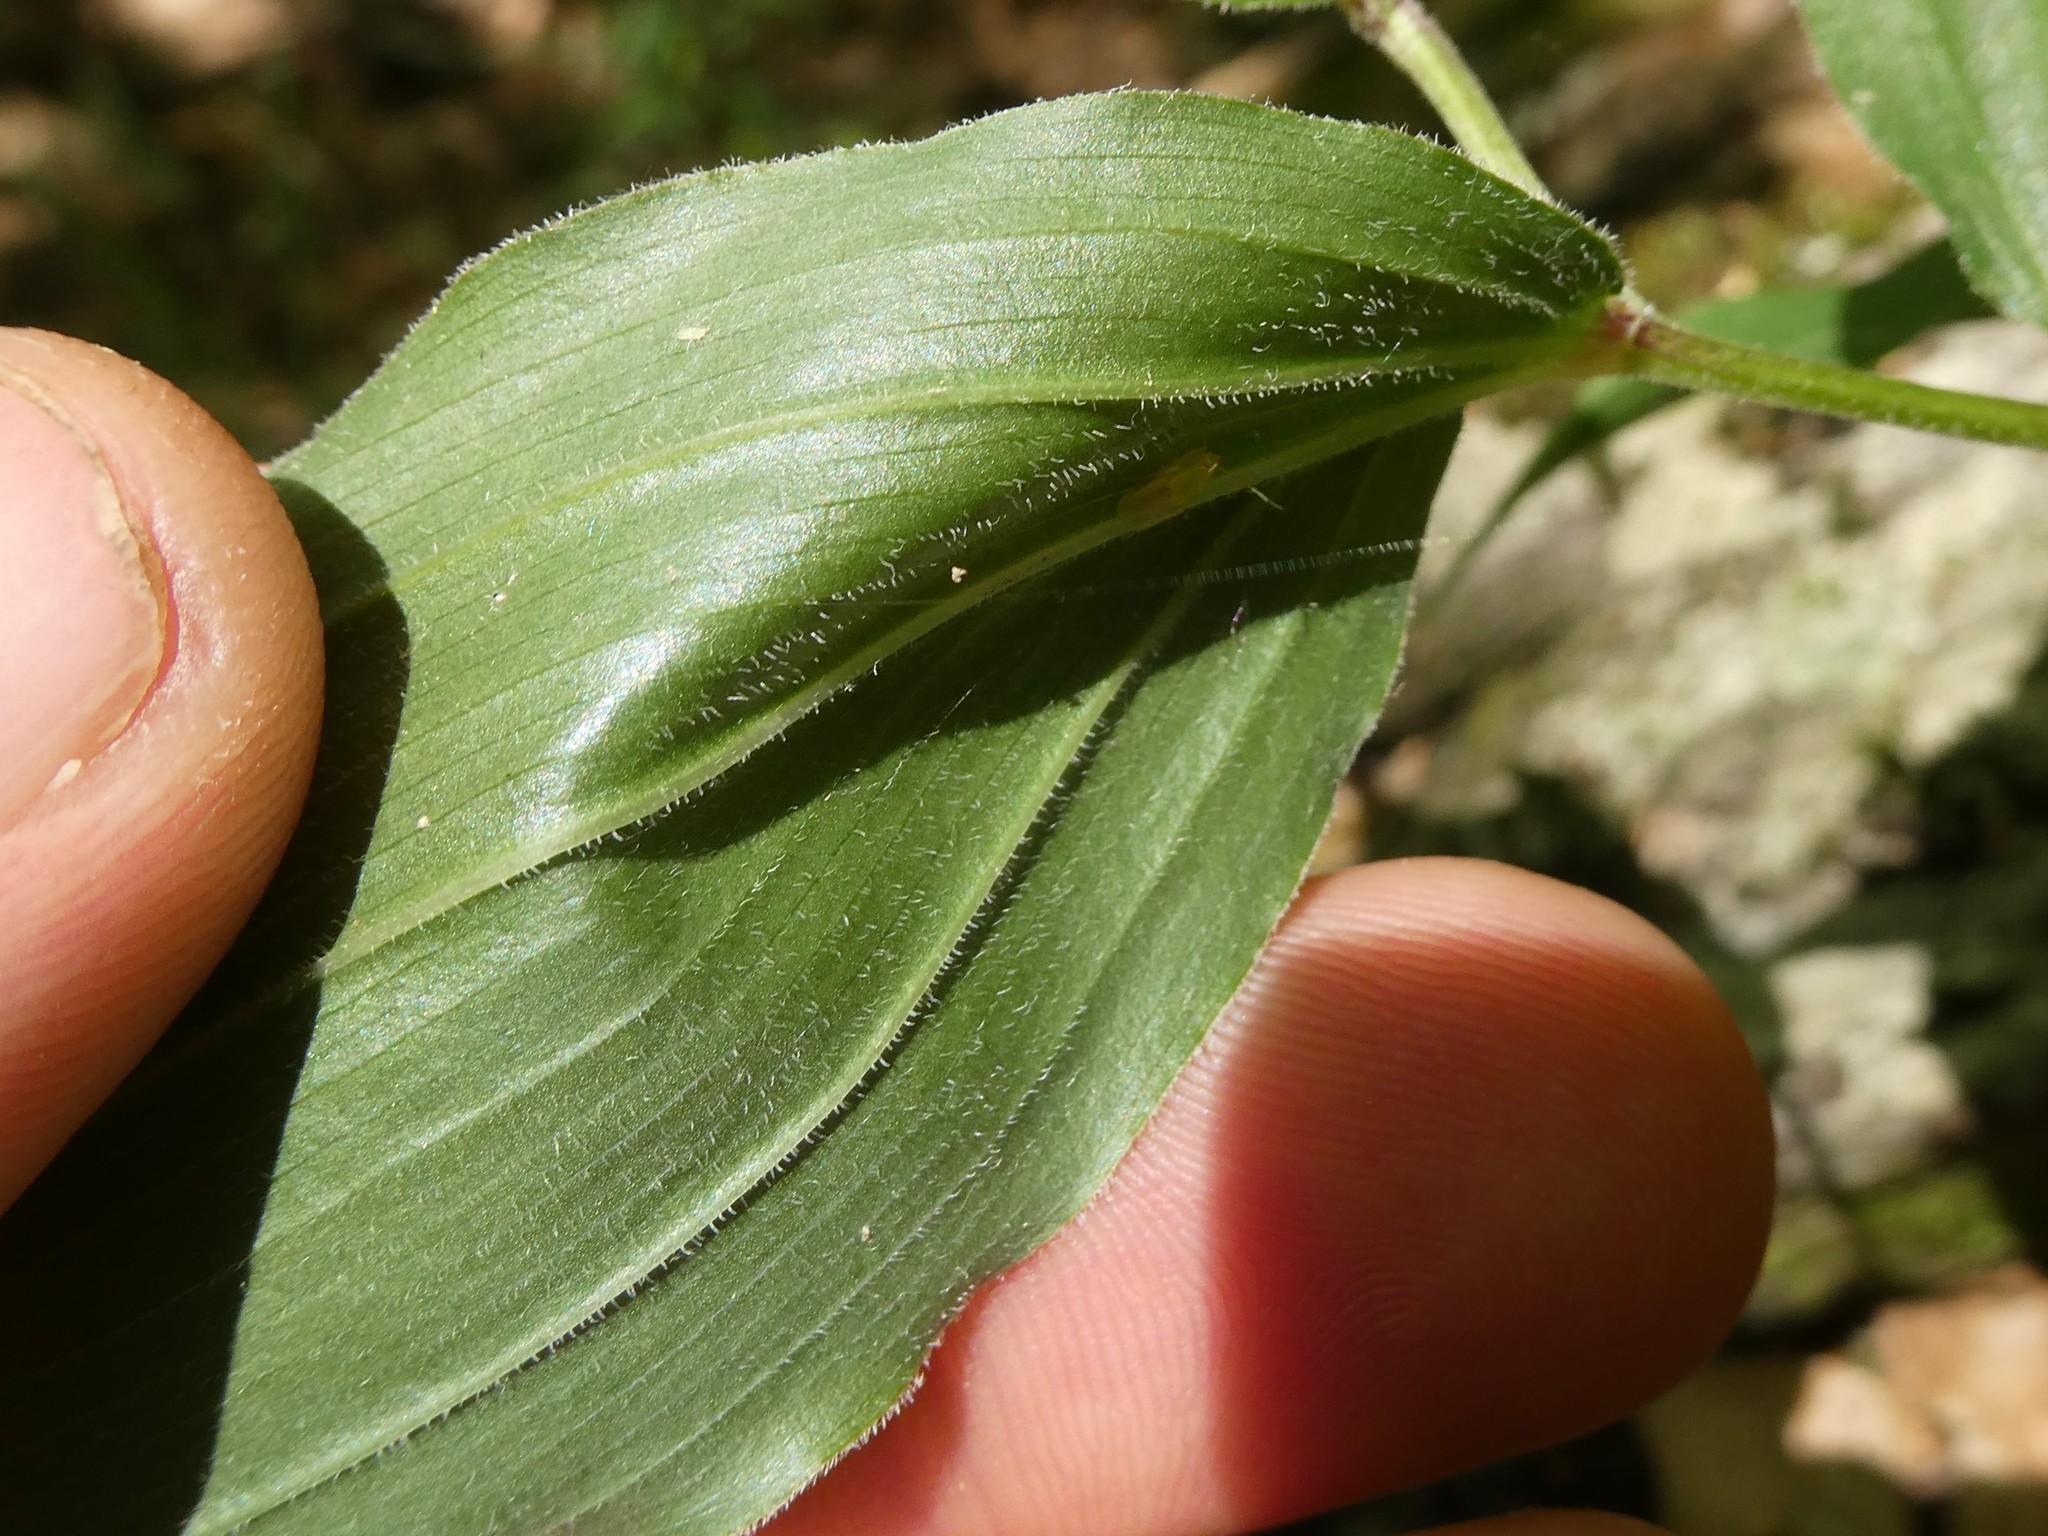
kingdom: Plantae
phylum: Tracheophyta
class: Liliopsida
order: Asparagales
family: Asparagaceae
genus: Maianthemum
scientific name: Maianthemum racemosum
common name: False spikenard
